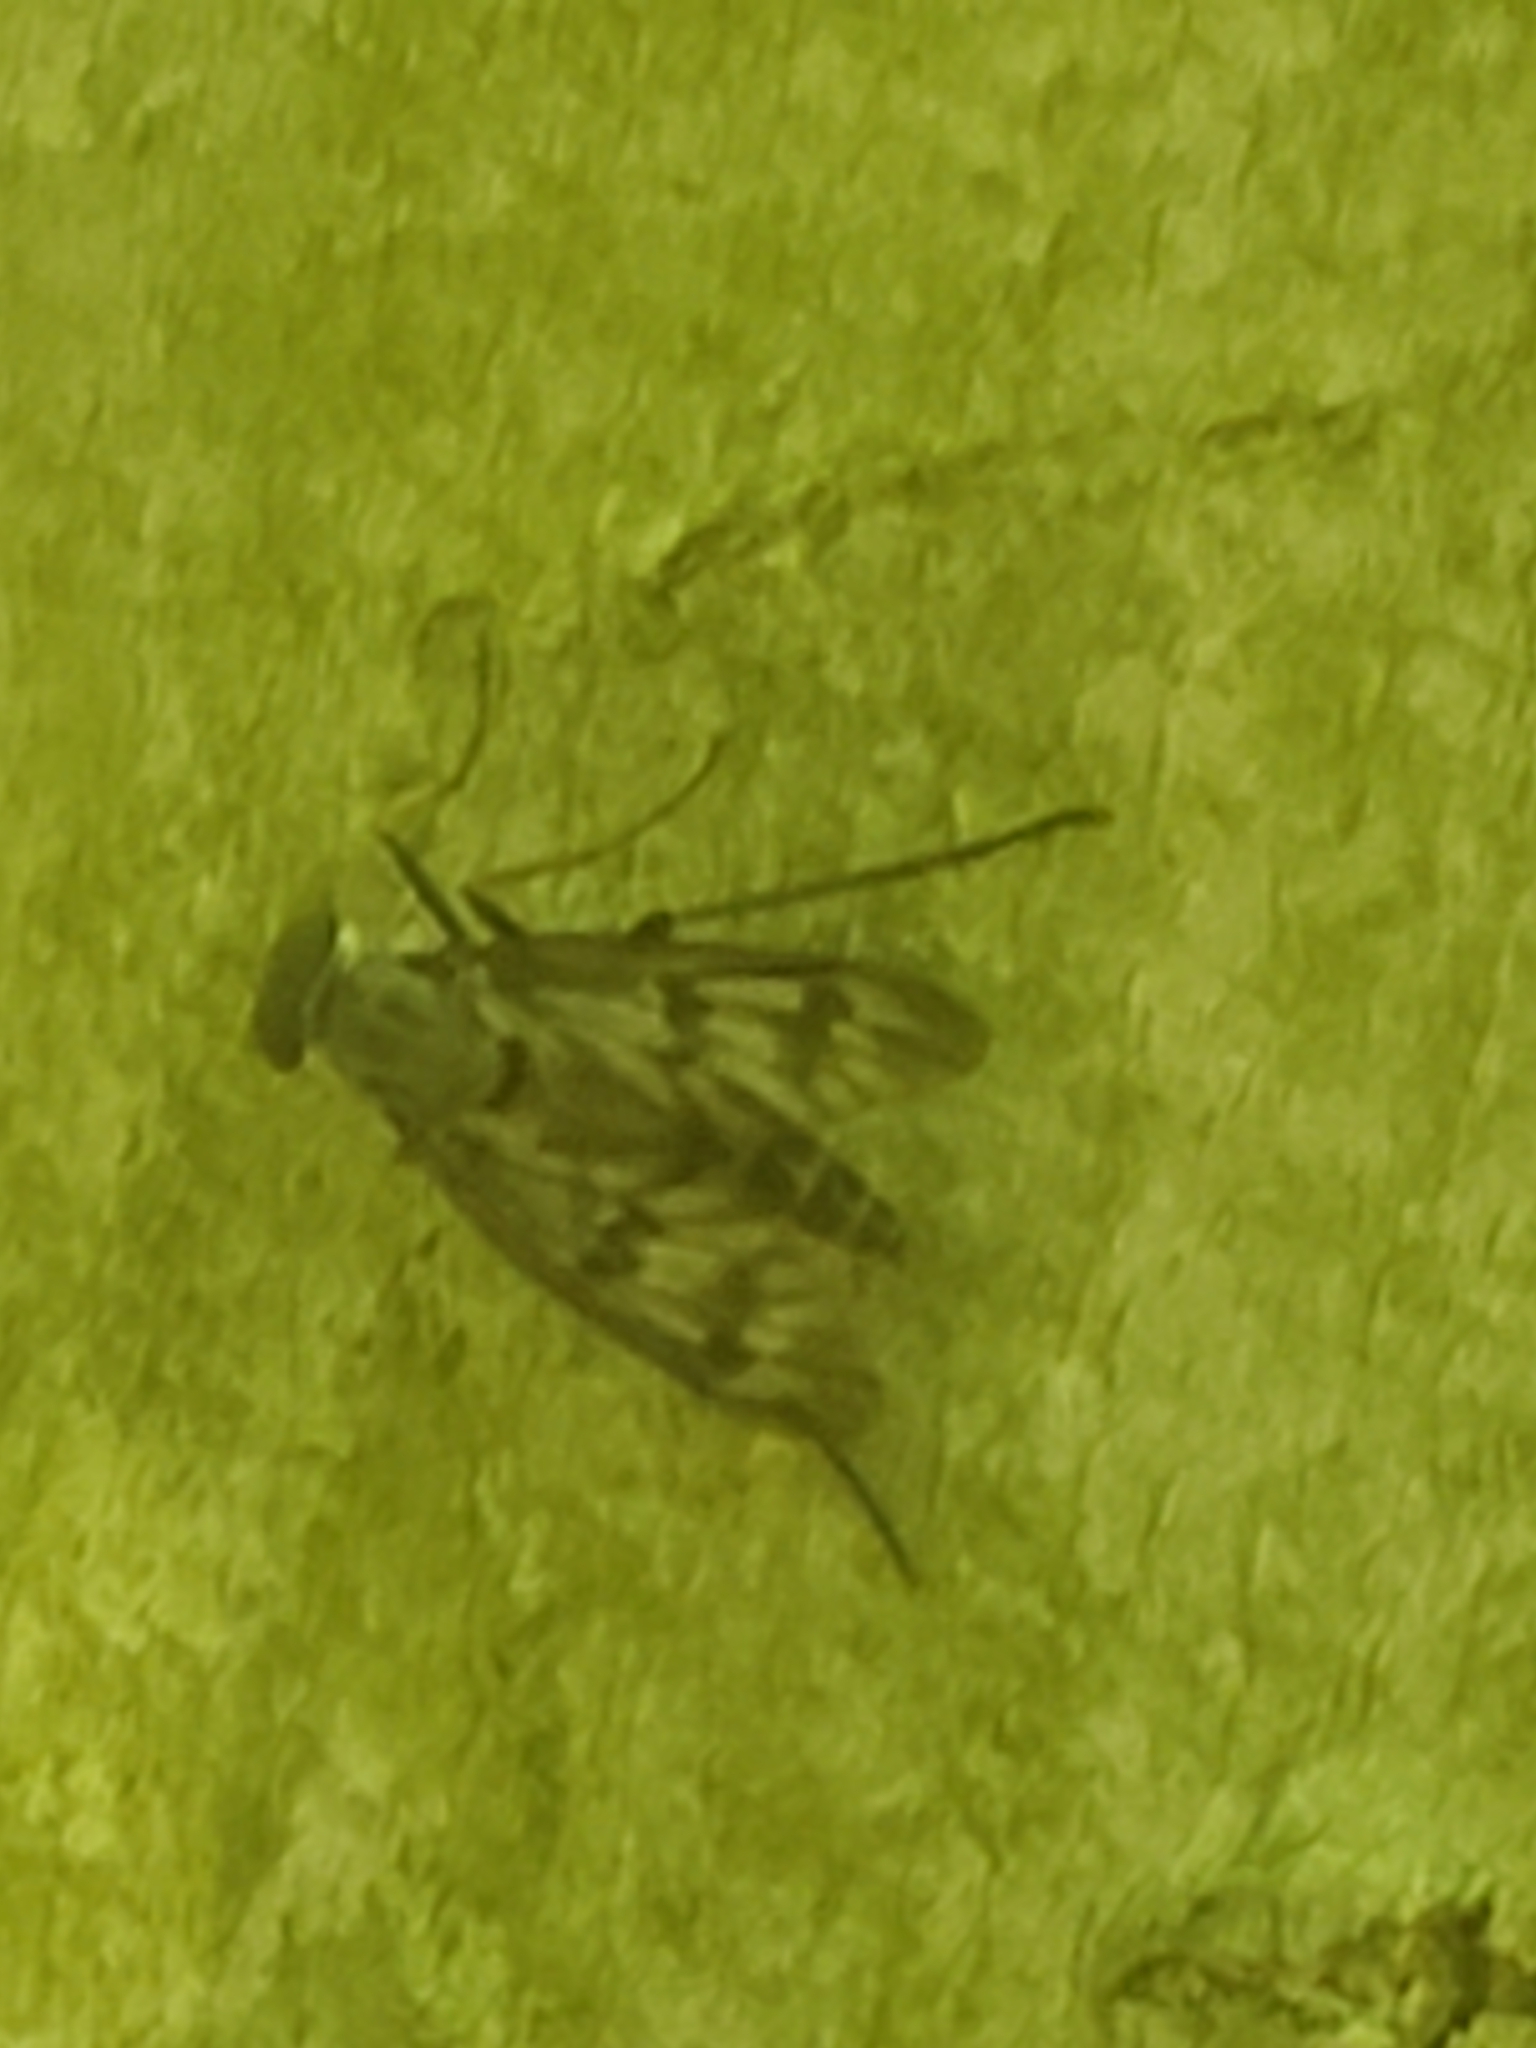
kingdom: Animalia
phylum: Arthropoda
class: Insecta
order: Diptera
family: Rhagionidae
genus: Rhagio
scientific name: Rhagio mystaceus
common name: Common snipe fly
